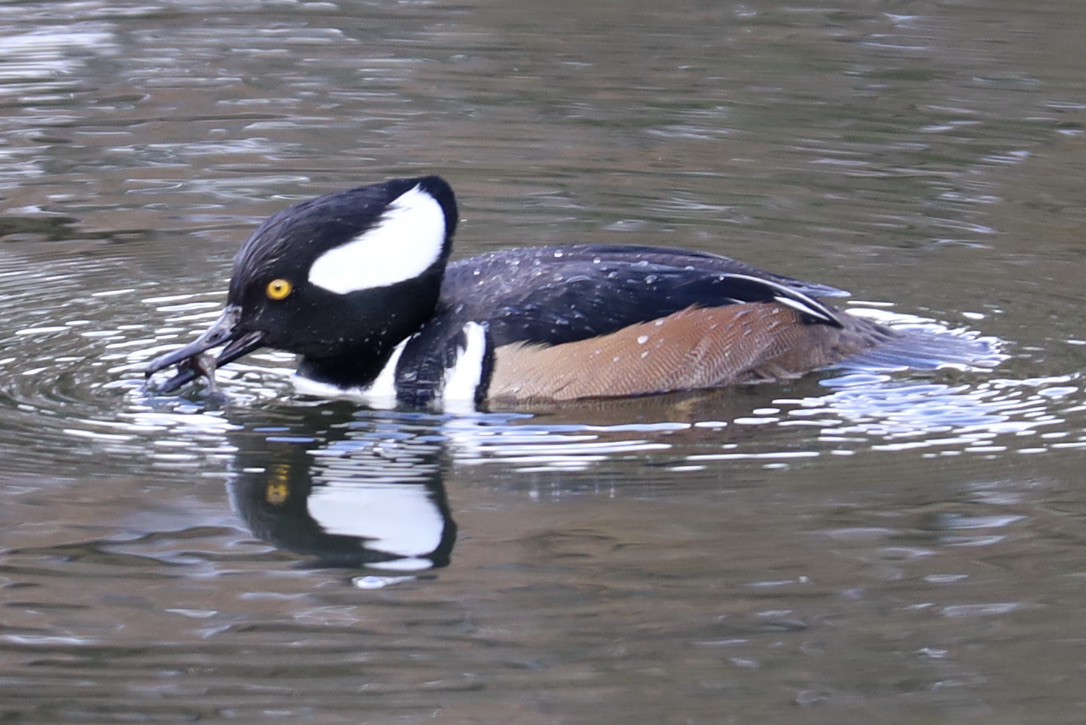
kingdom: Animalia
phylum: Chordata
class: Aves
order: Anseriformes
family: Anatidae
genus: Lophodytes
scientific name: Lophodytes cucullatus
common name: Hooded merganser
